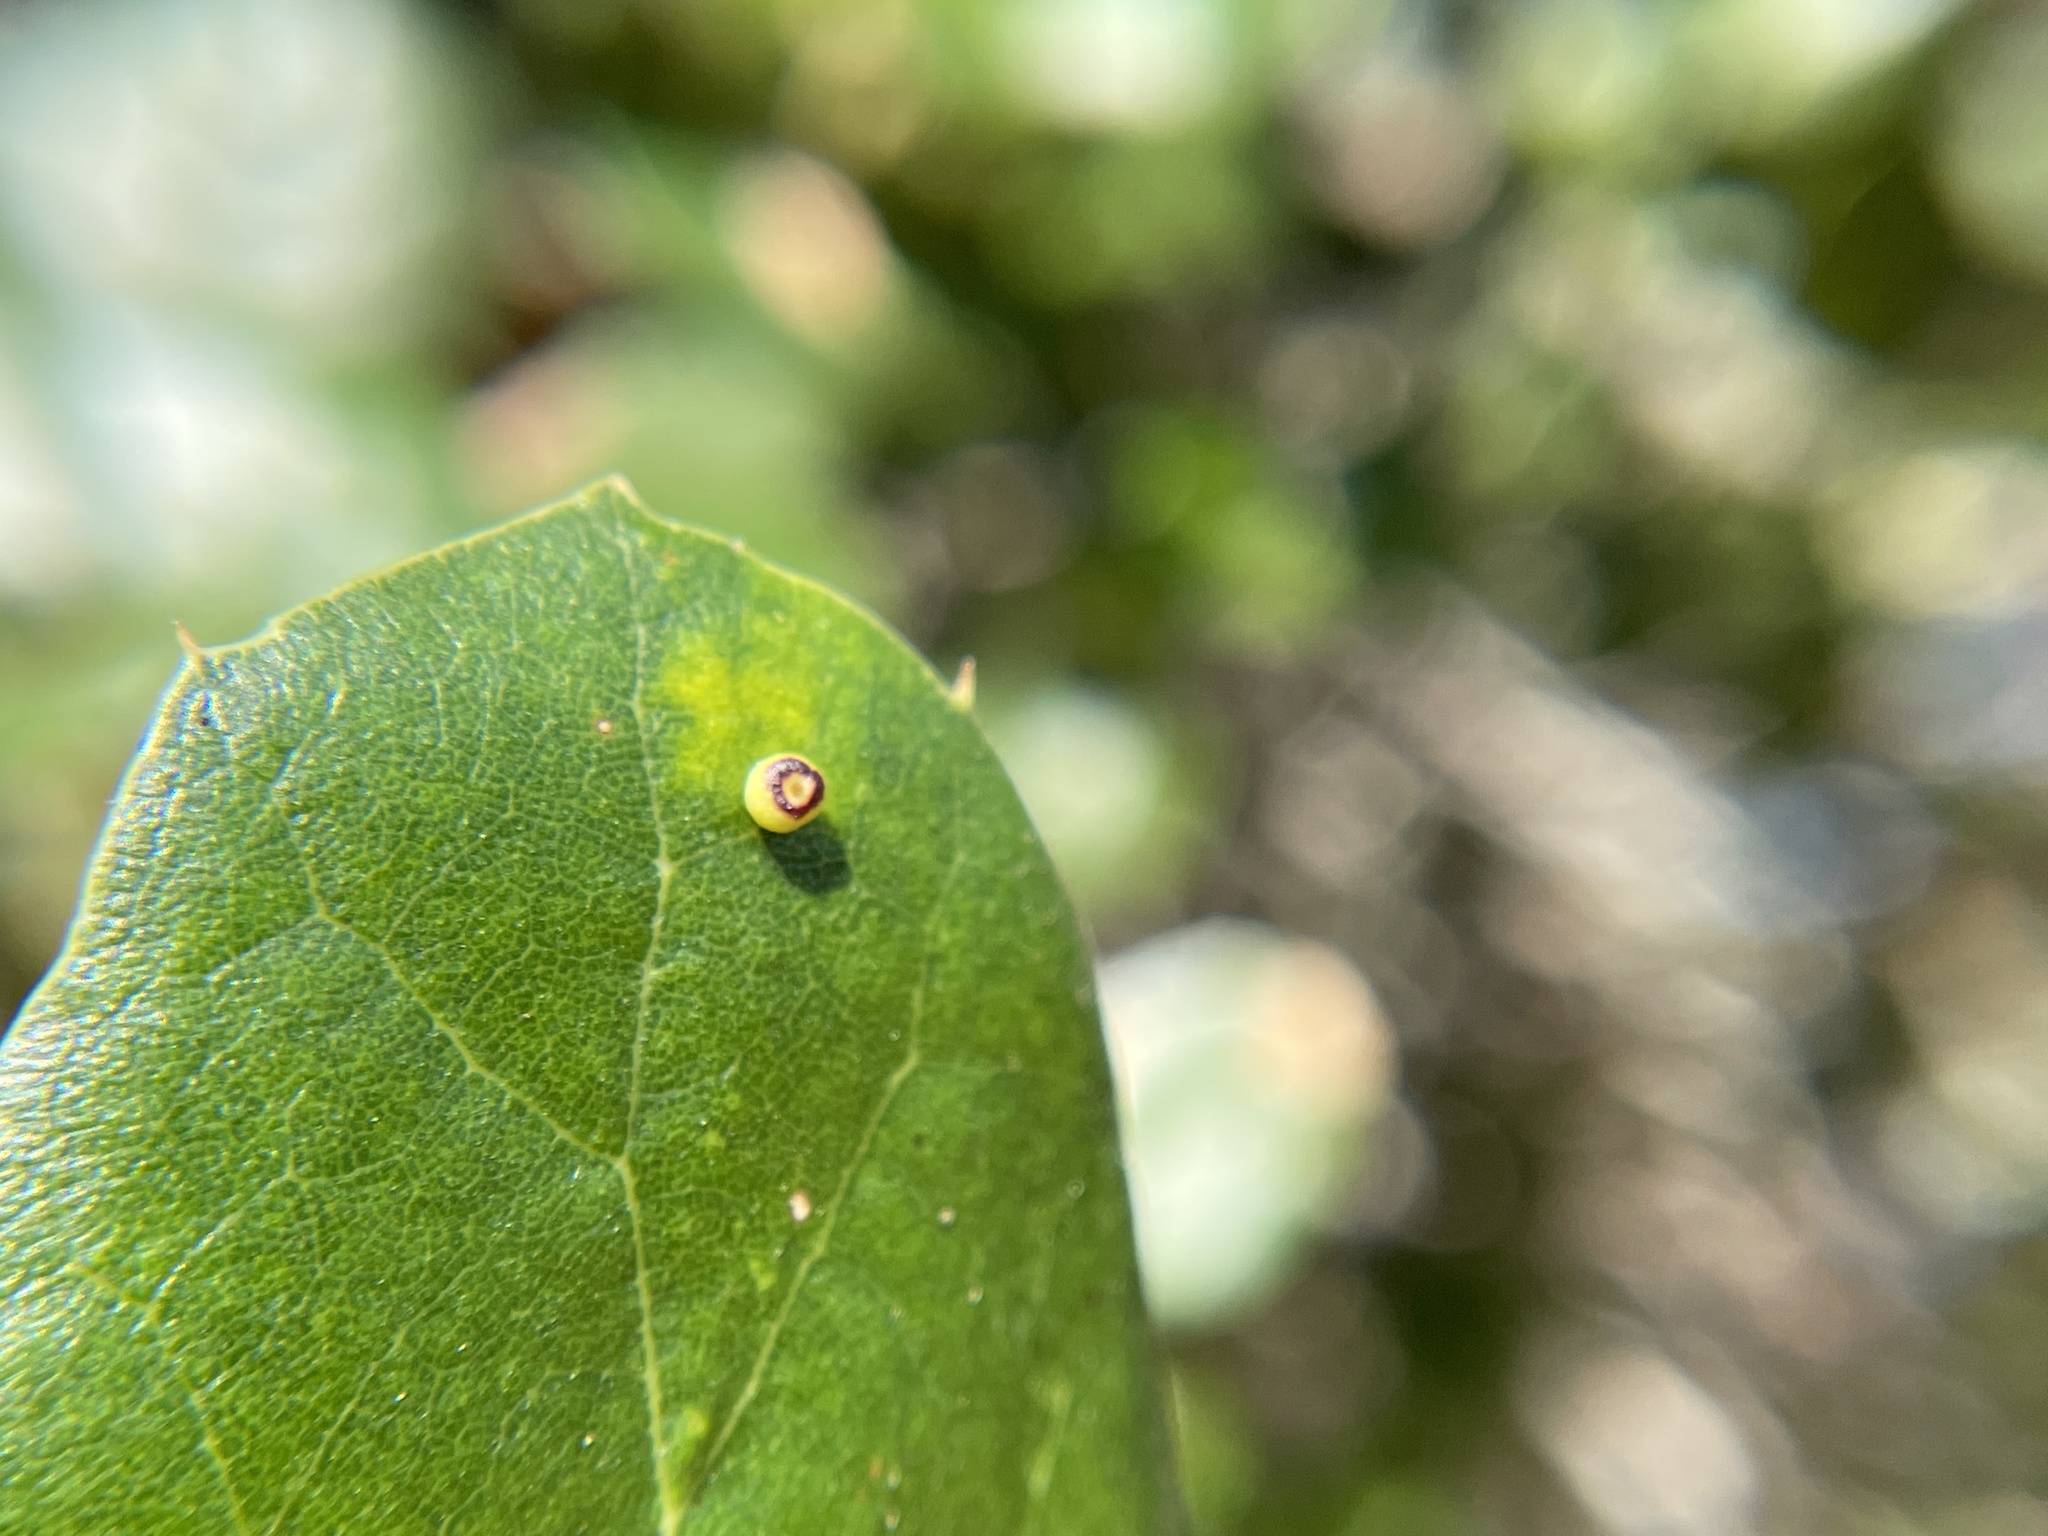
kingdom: Animalia
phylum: Arthropoda
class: Insecta
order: Hymenoptera
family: Cynipidae
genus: Dryocosmus
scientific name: Dryocosmus
